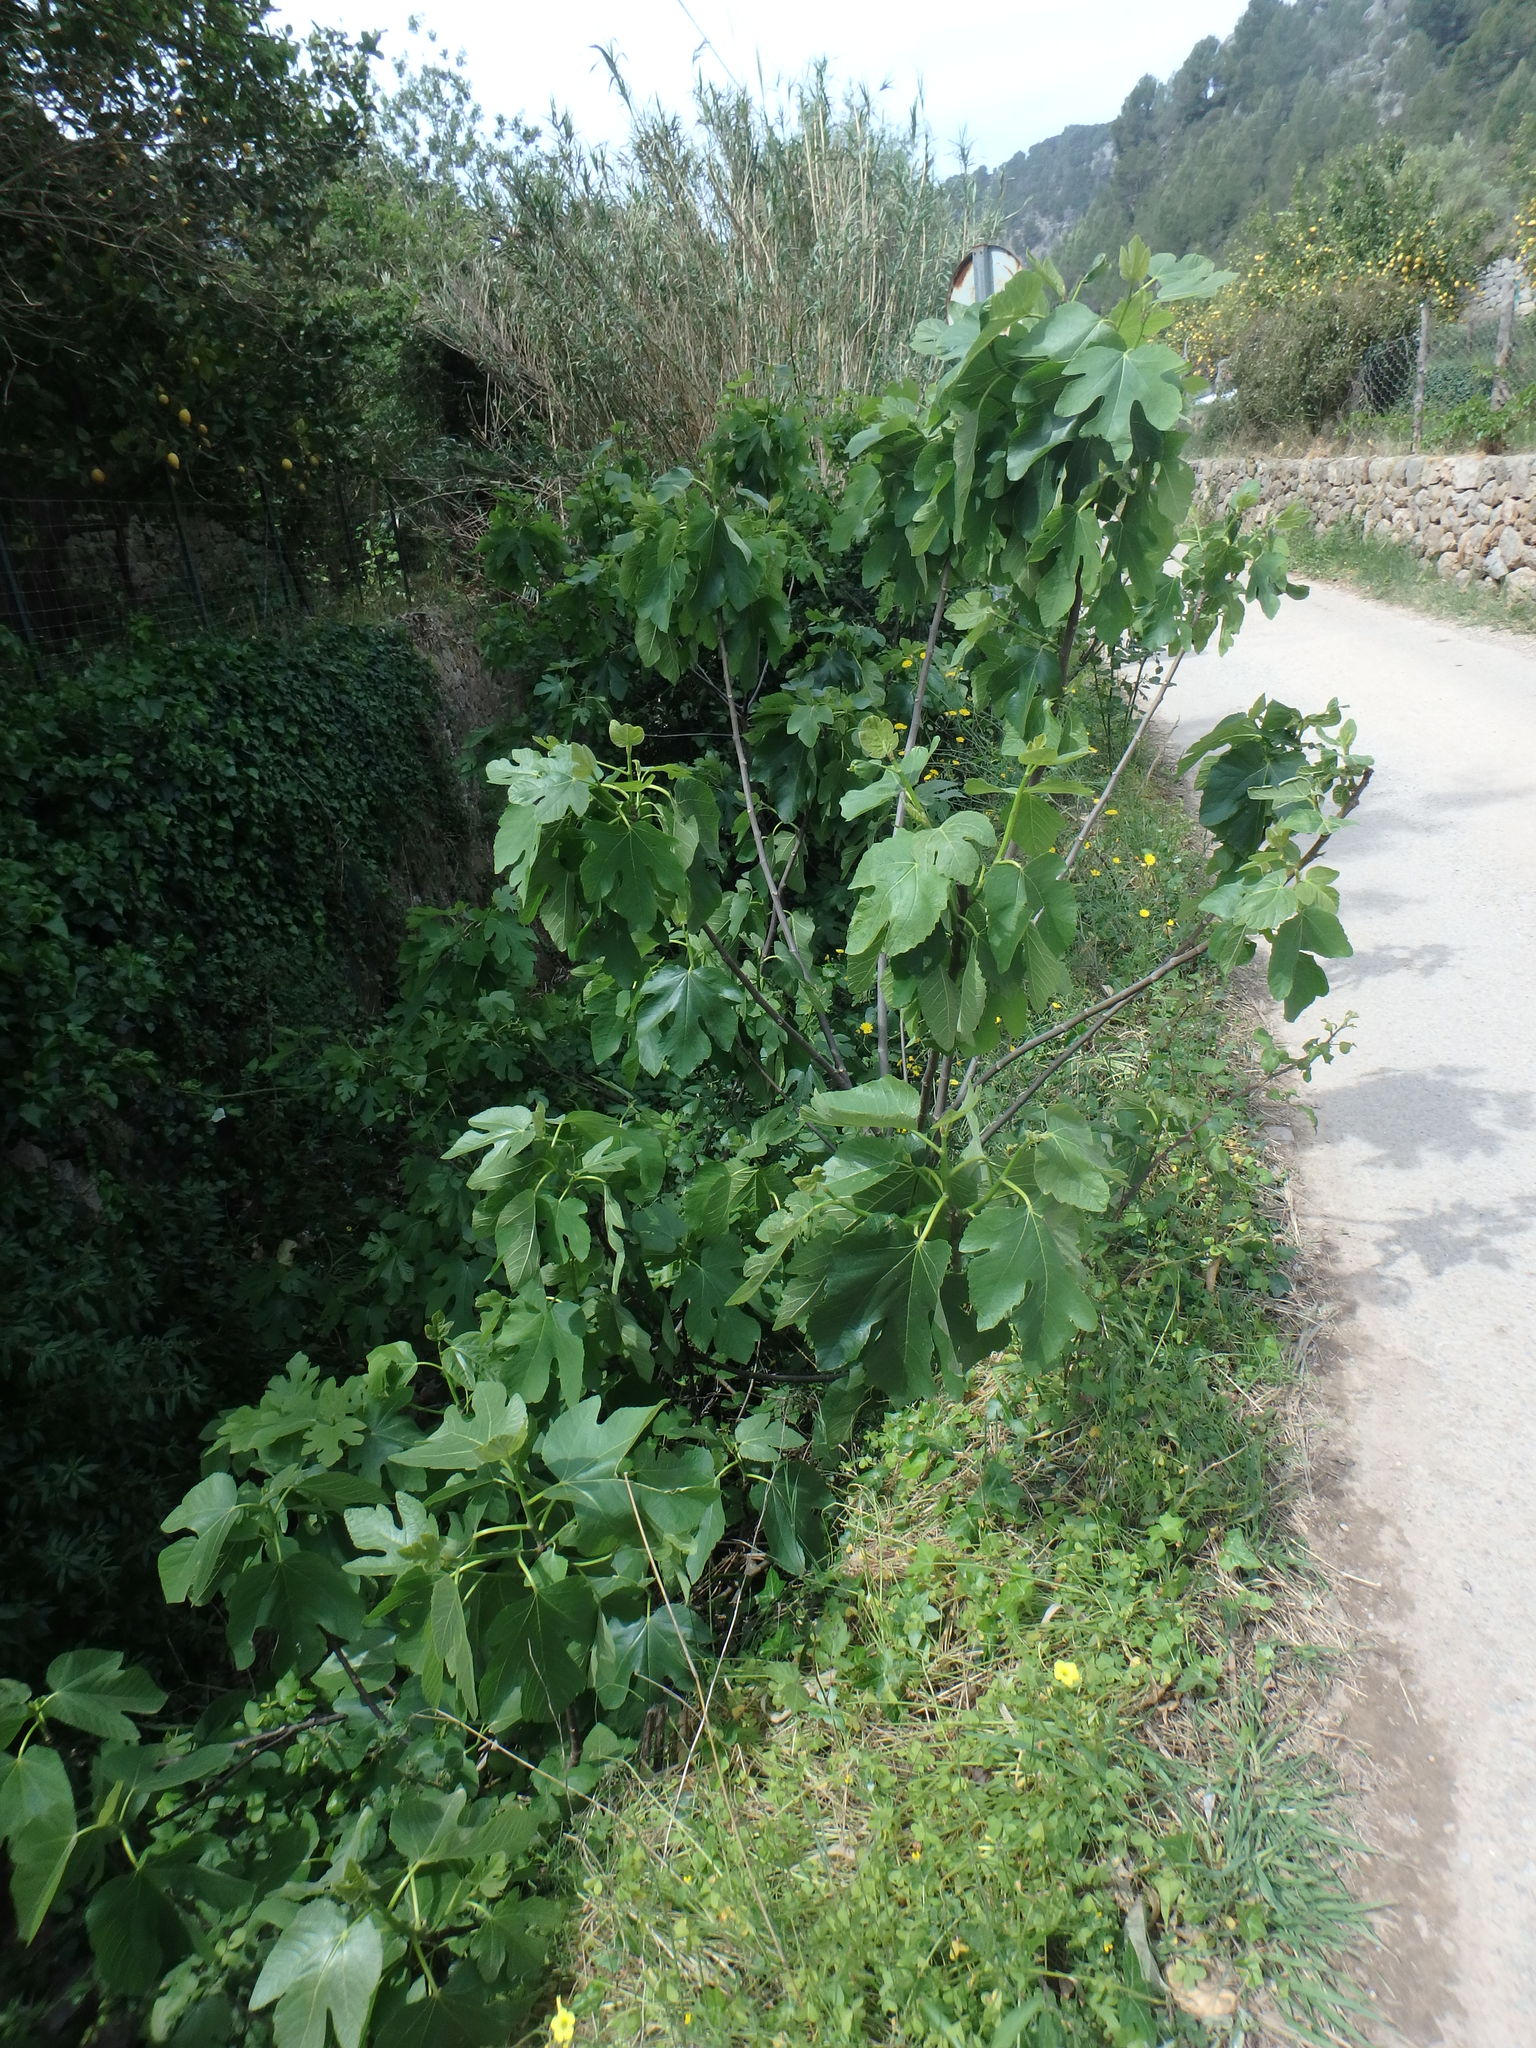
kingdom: Plantae
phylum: Tracheophyta
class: Magnoliopsida
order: Rosales
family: Moraceae
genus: Ficus
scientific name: Ficus carica
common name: Fig
